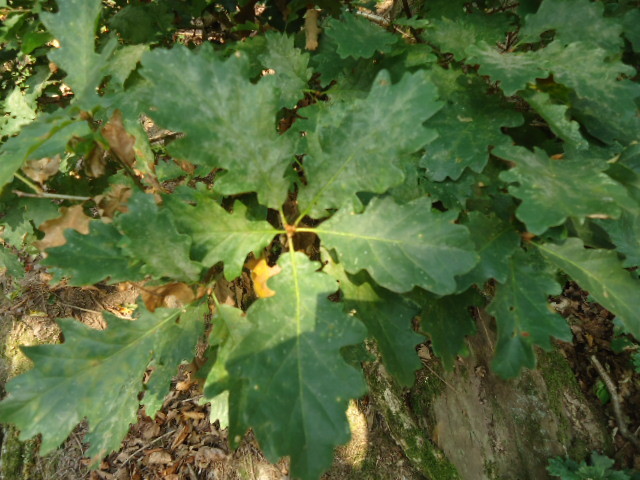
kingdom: Plantae
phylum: Tracheophyta
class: Magnoliopsida
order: Fagales
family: Fagaceae
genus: Quercus
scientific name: Quercus petraea
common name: Sessile oak
